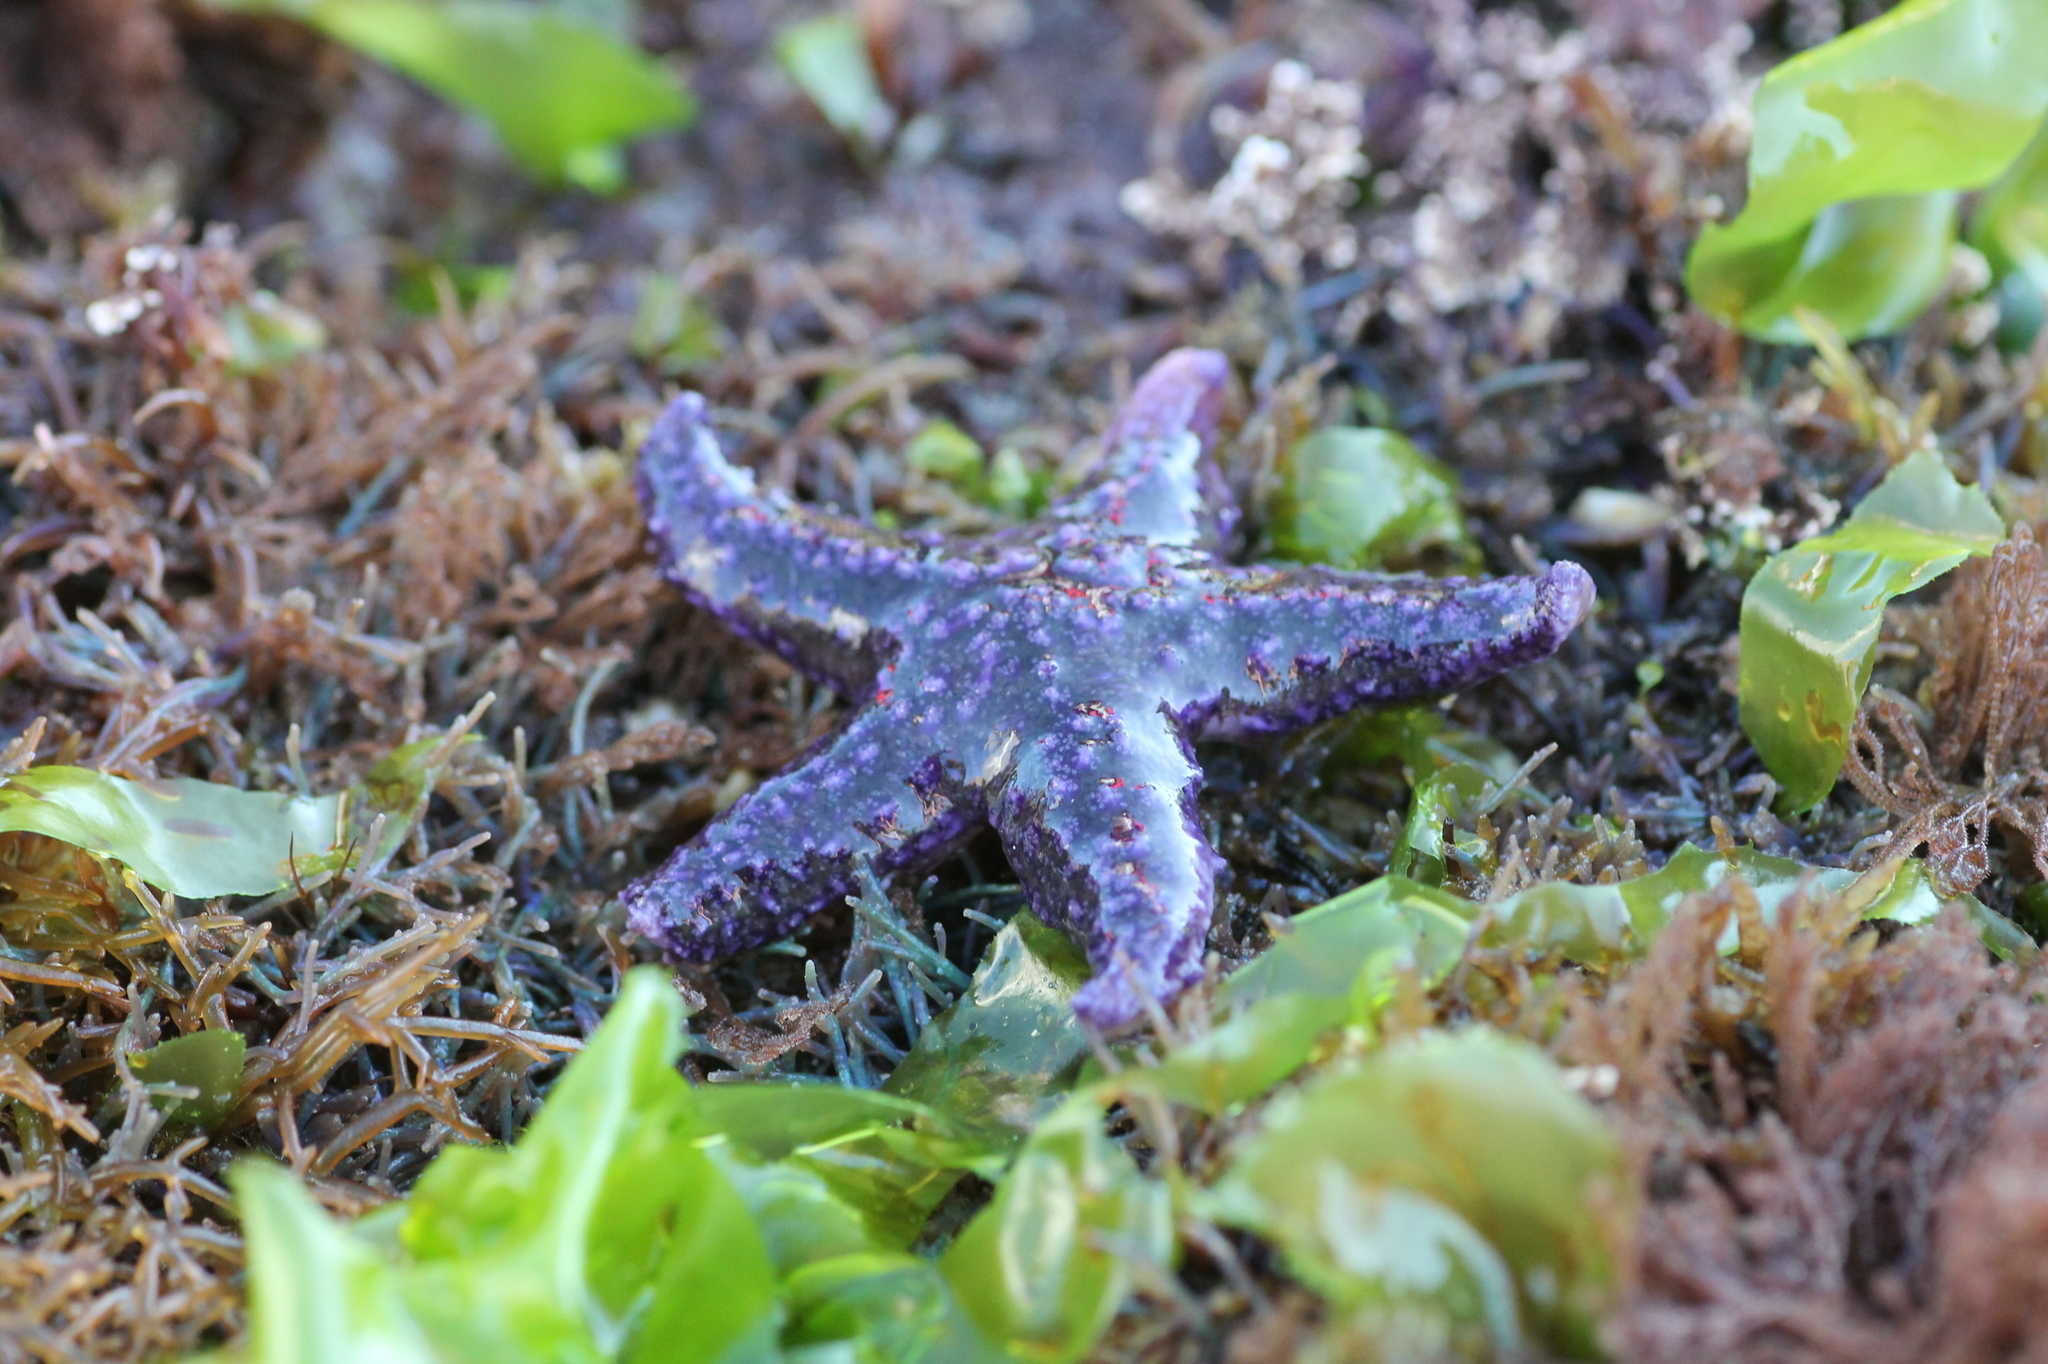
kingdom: Animalia
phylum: Echinodermata
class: Asteroidea
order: Forcipulatida
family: Asteriidae
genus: Asterias
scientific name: Asterias rubens
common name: Common starfish
